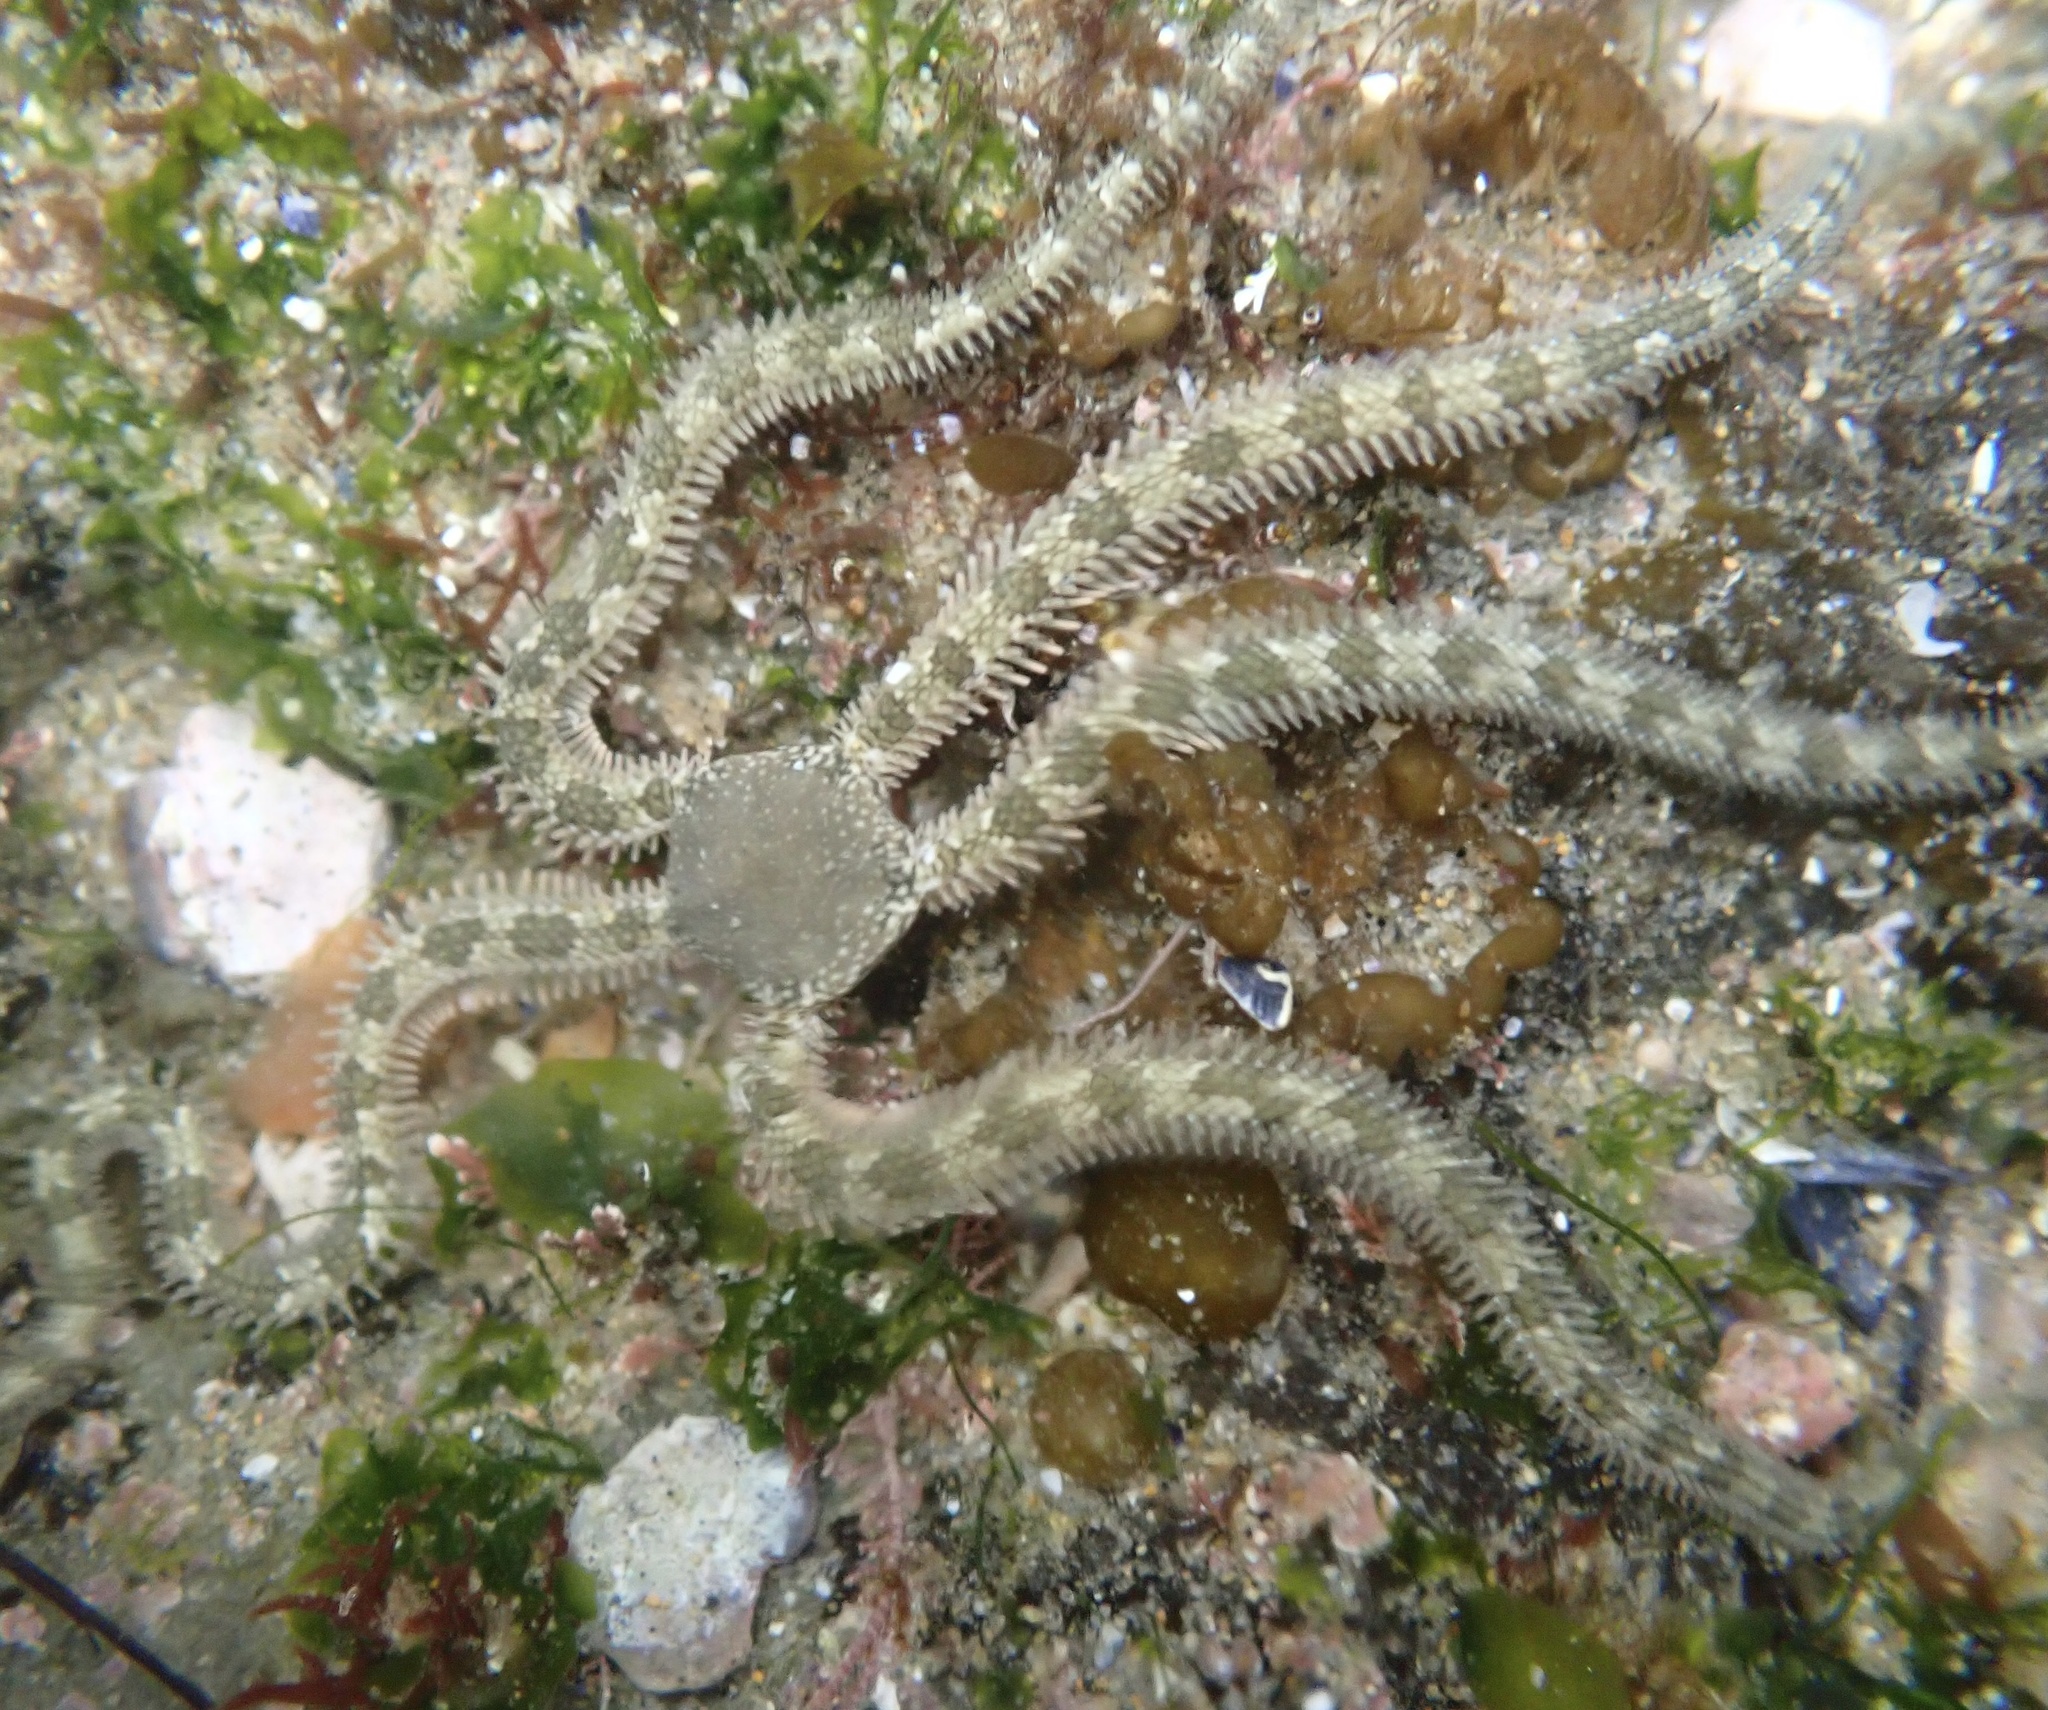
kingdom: Animalia
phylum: Echinodermata
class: Ophiuroidea
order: Amphilepidida
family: Ophionereididae
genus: Ophionereis
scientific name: Ophionereis annulata
